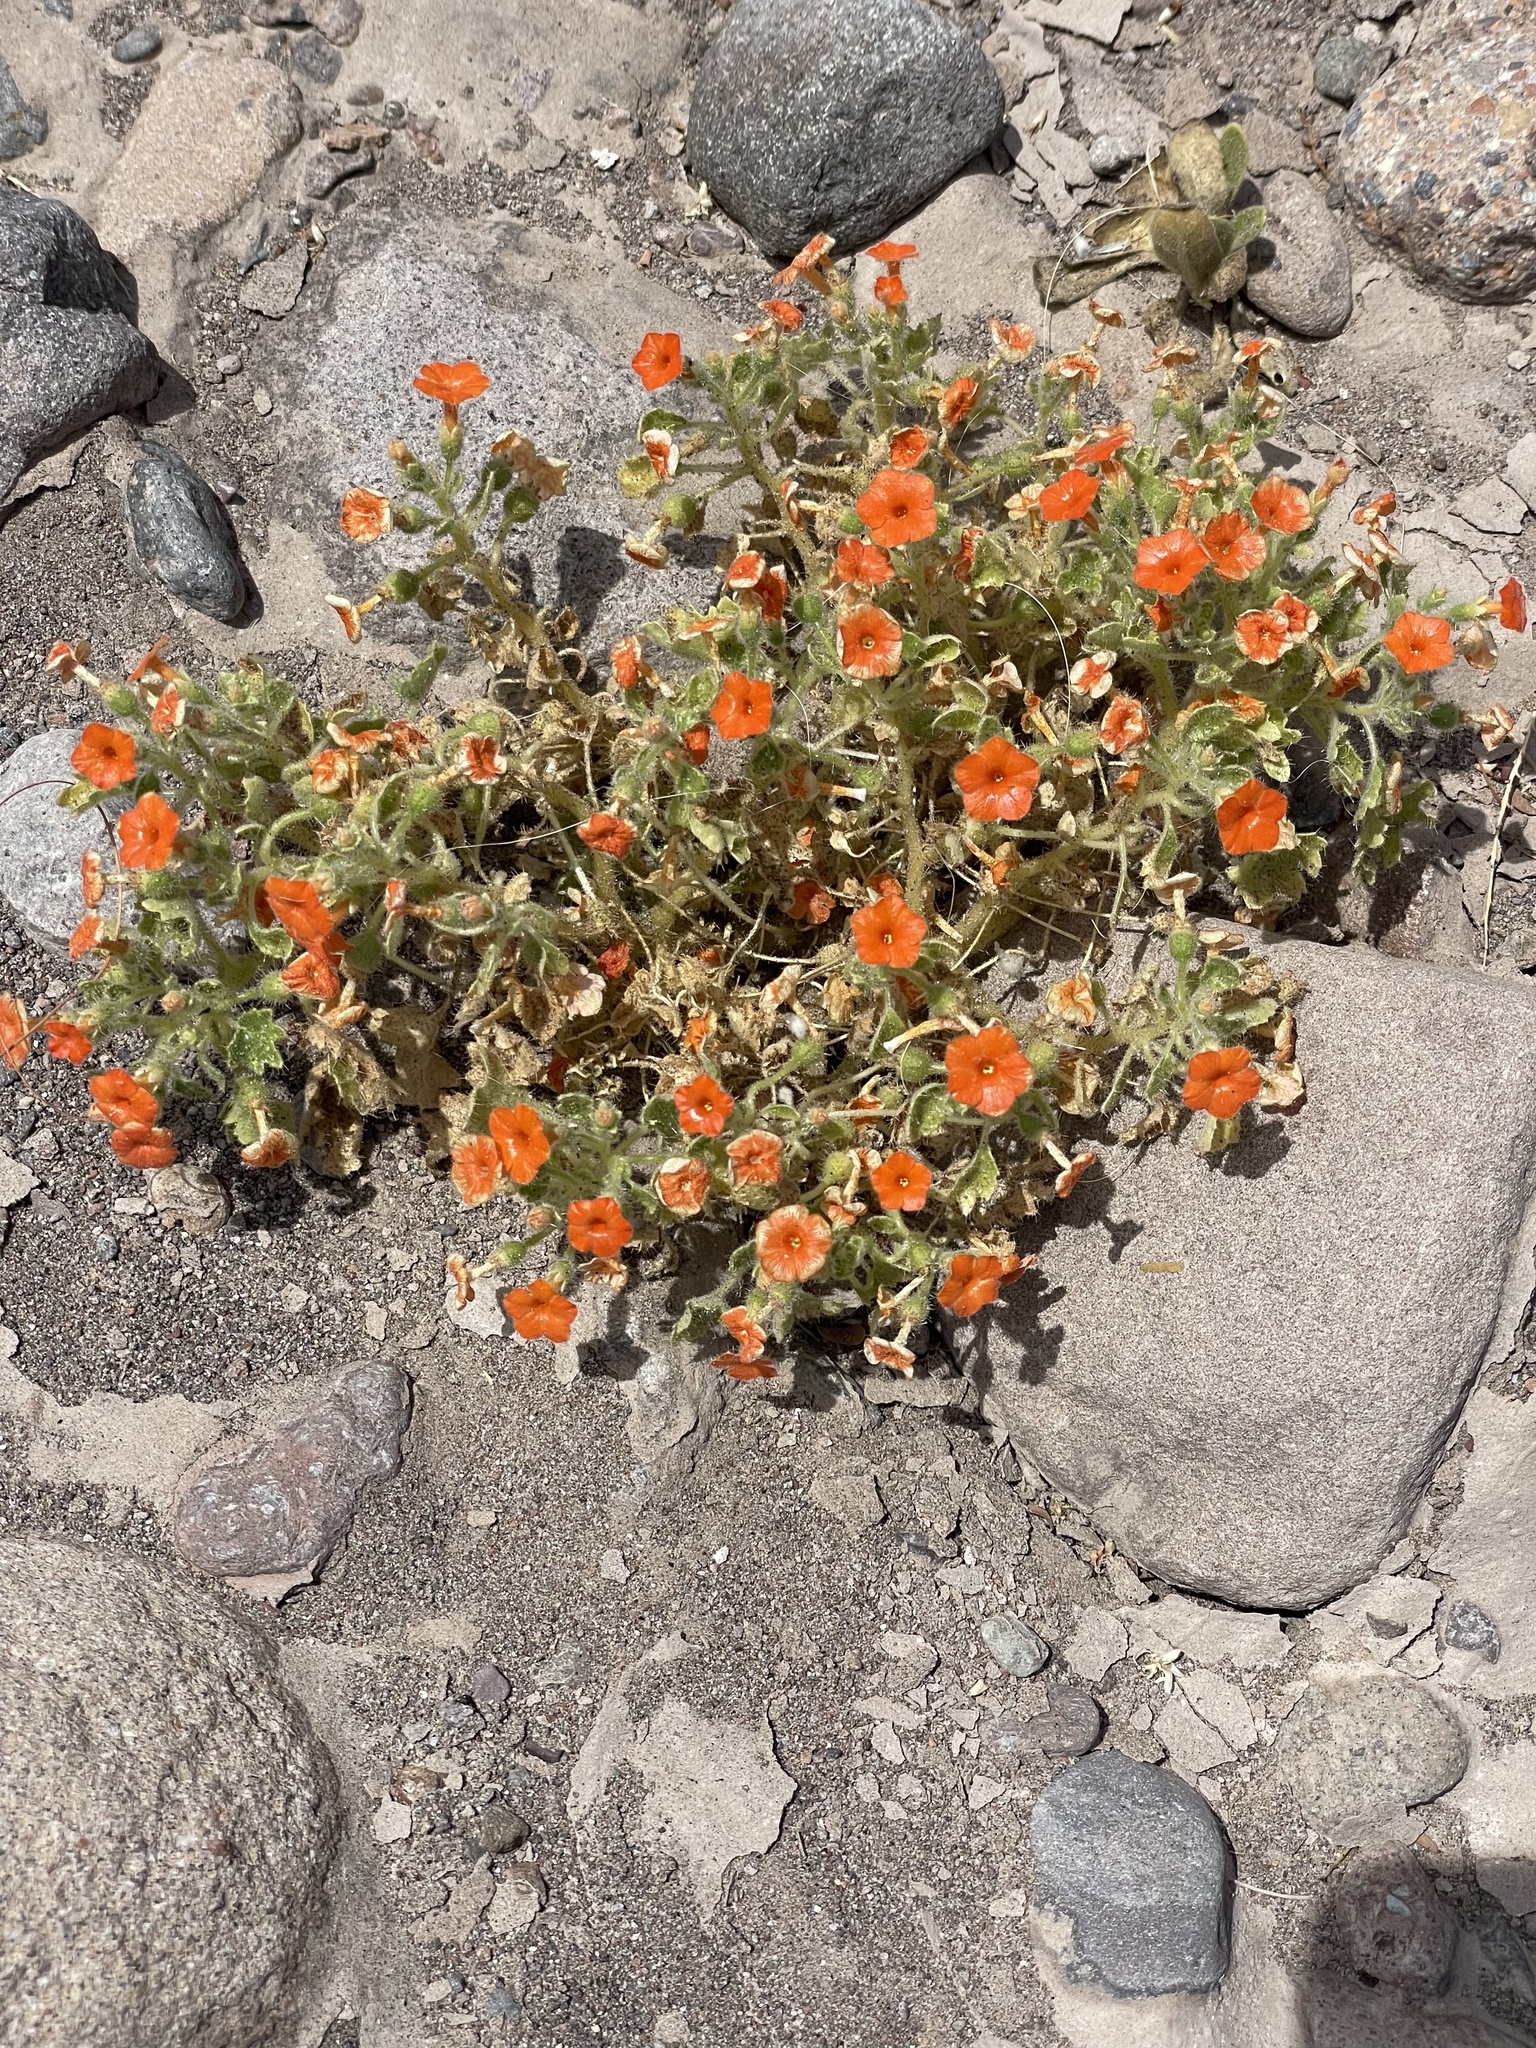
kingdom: Plantae
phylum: Tracheophyta
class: Magnoliopsida
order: Cornales
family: Loasaceae
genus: Eucnide
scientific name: Eucnide aurea
